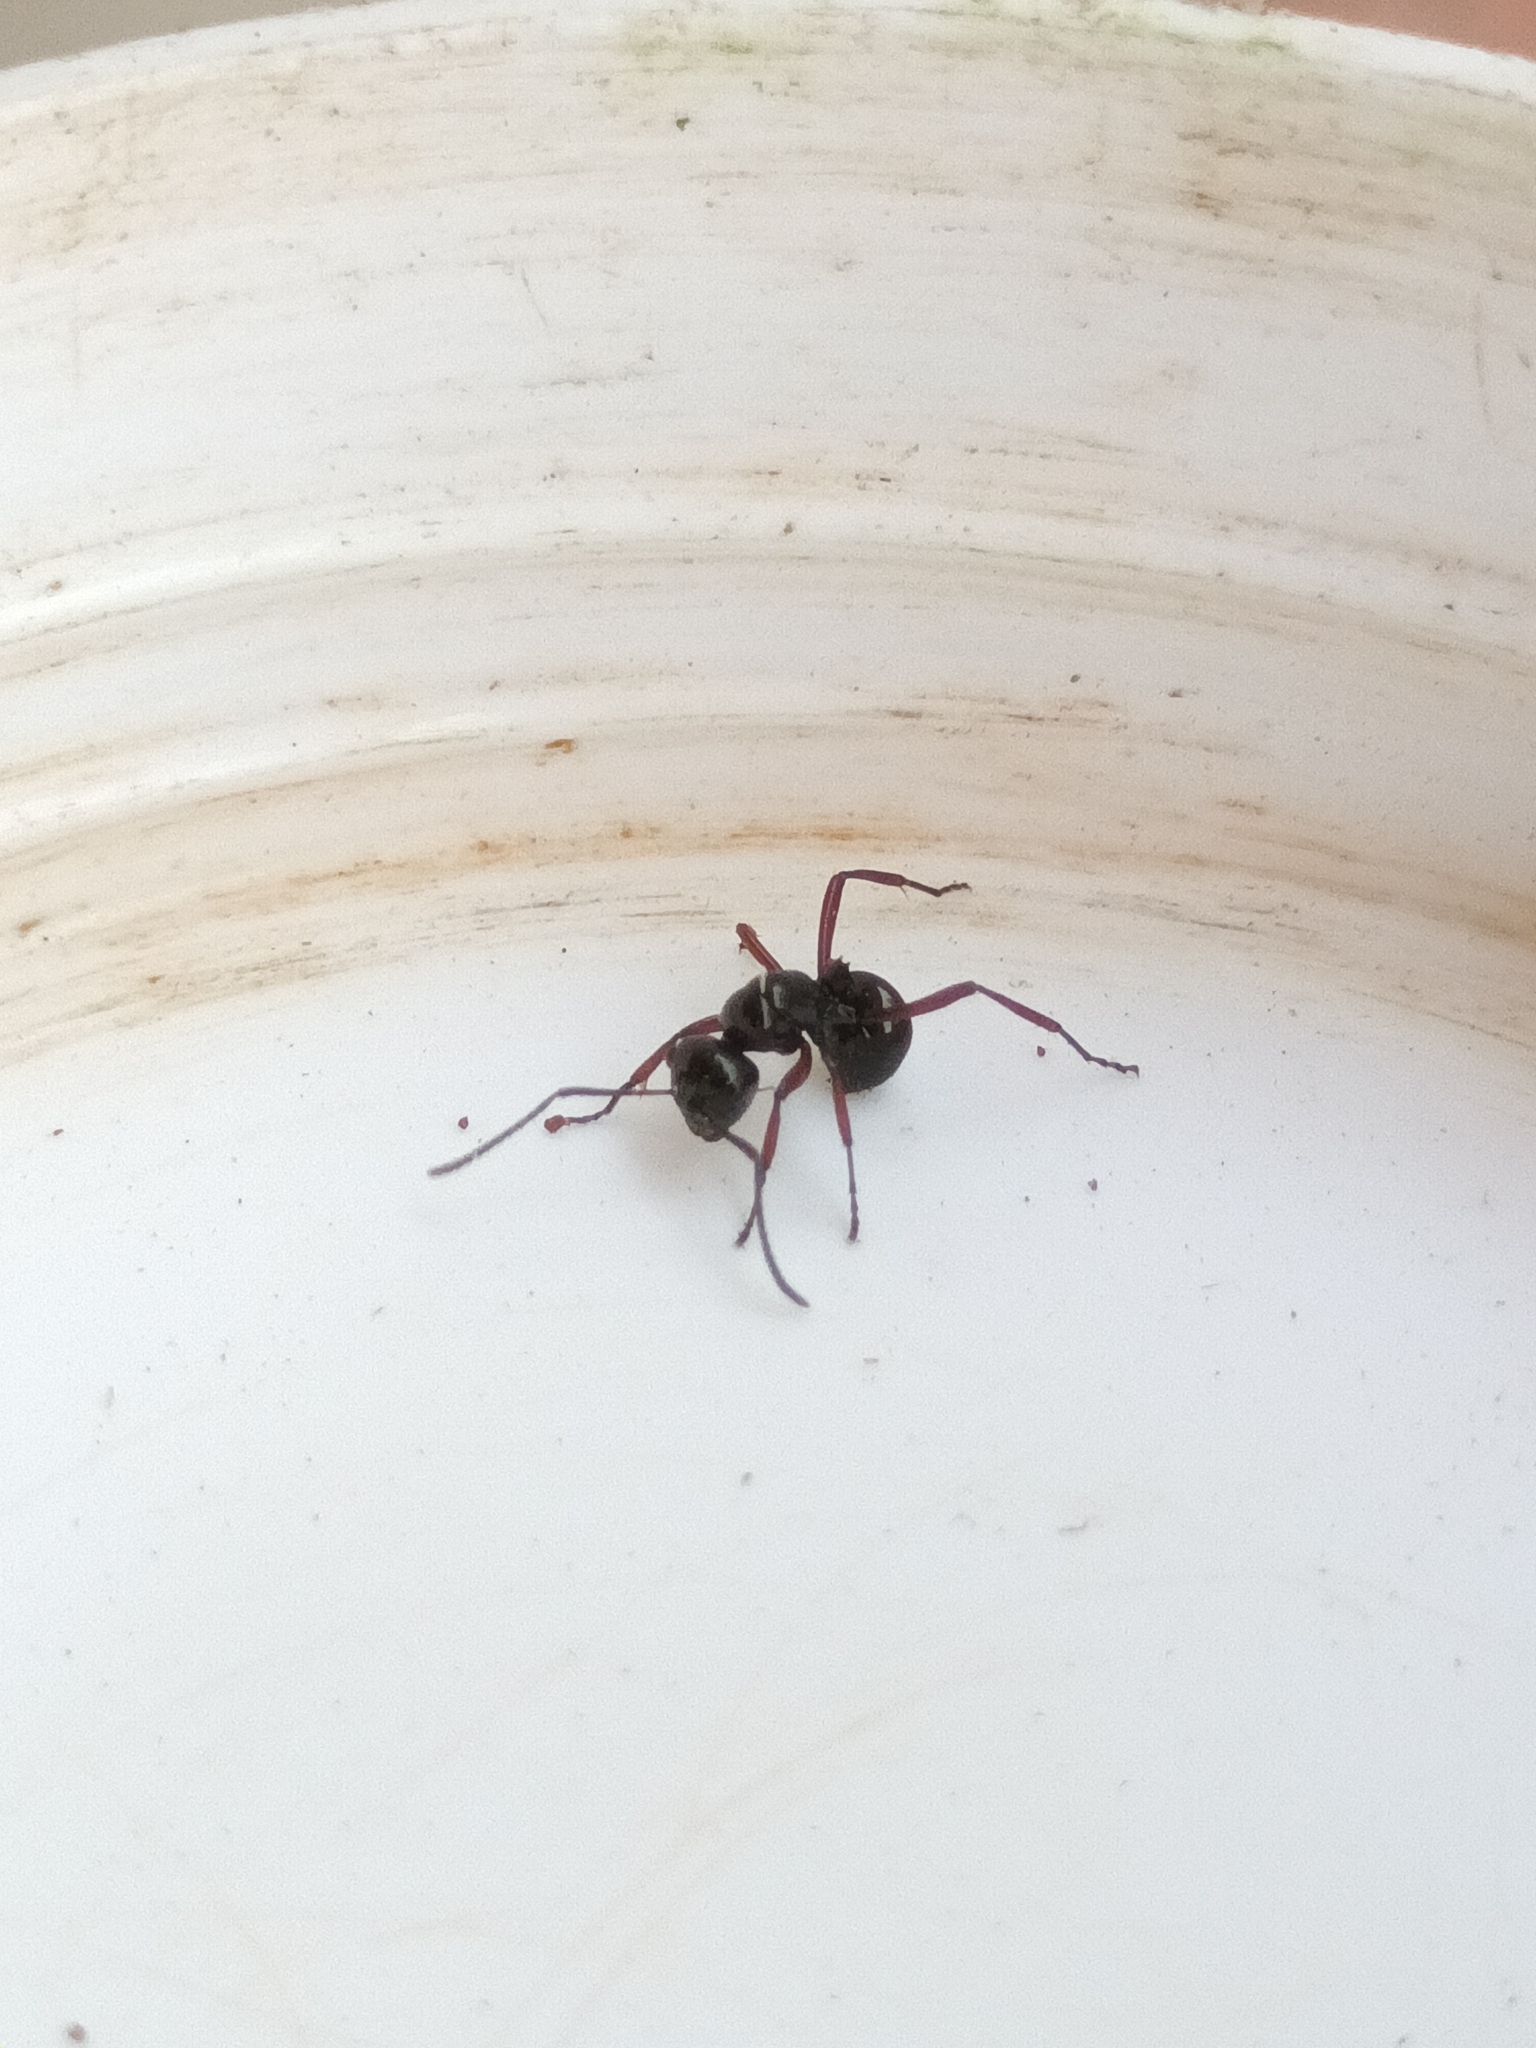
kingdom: Animalia
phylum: Arthropoda
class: Insecta
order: Hymenoptera
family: Formicidae
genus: Polyrhachis
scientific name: Polyrhachis rastellata
